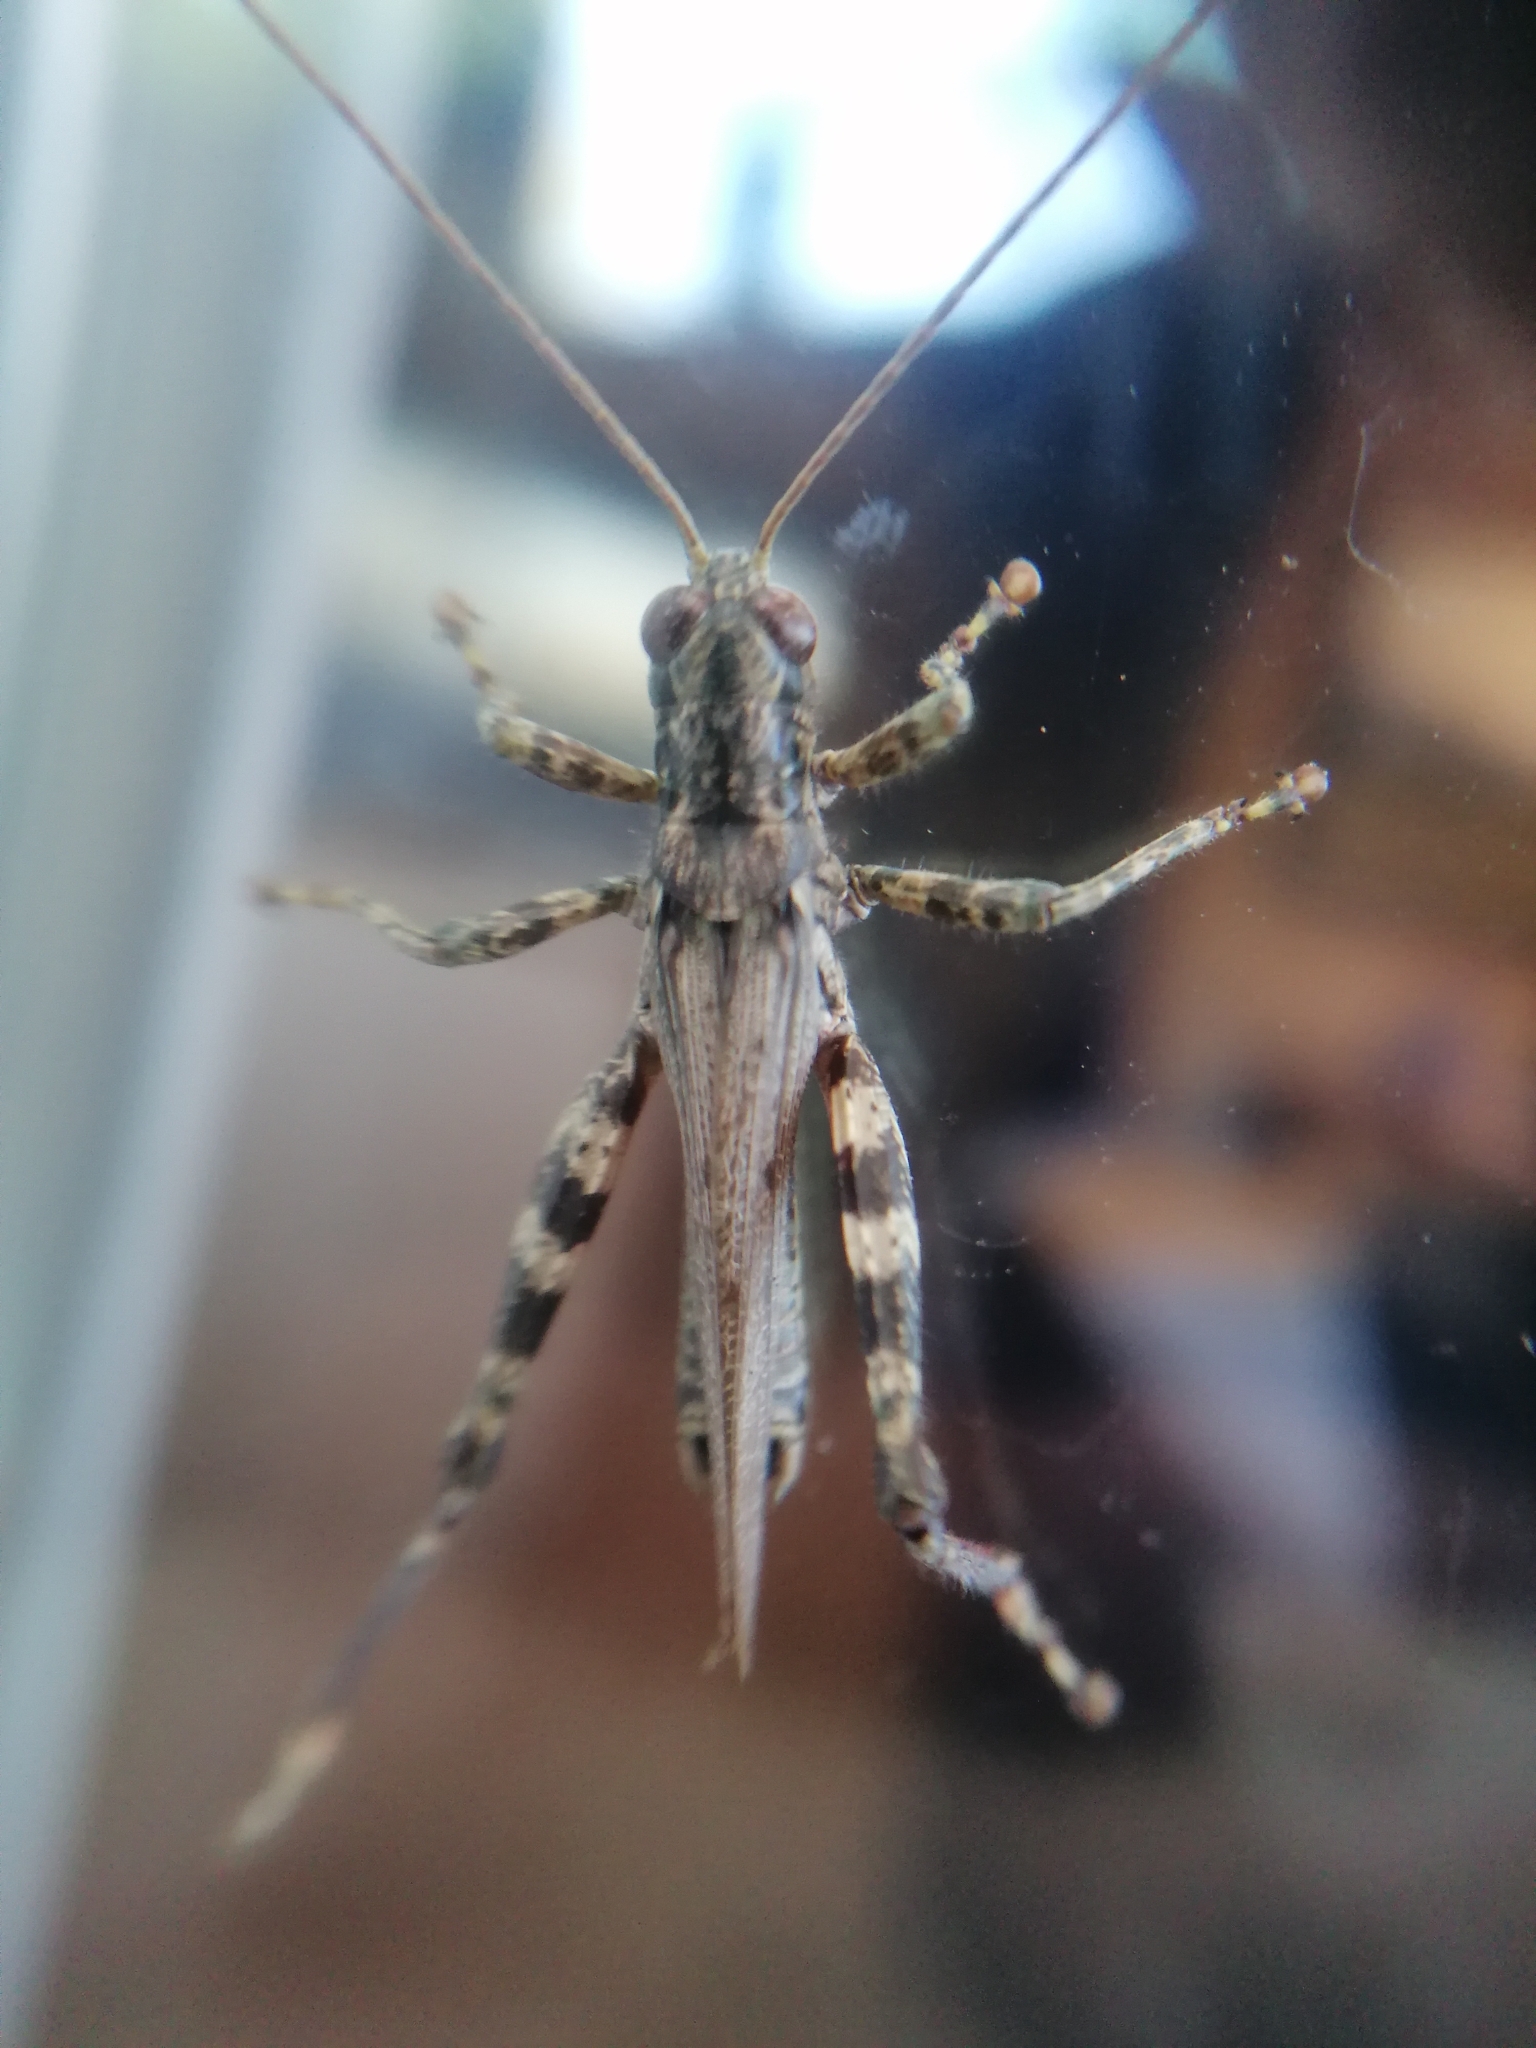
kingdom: Animalia
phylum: Arthropoda
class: Insecta
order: Orthoptera
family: Acrididae
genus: Melanoplus
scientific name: Melanoplus punctulatus
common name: Pine-tree spur-throat grasshopper
